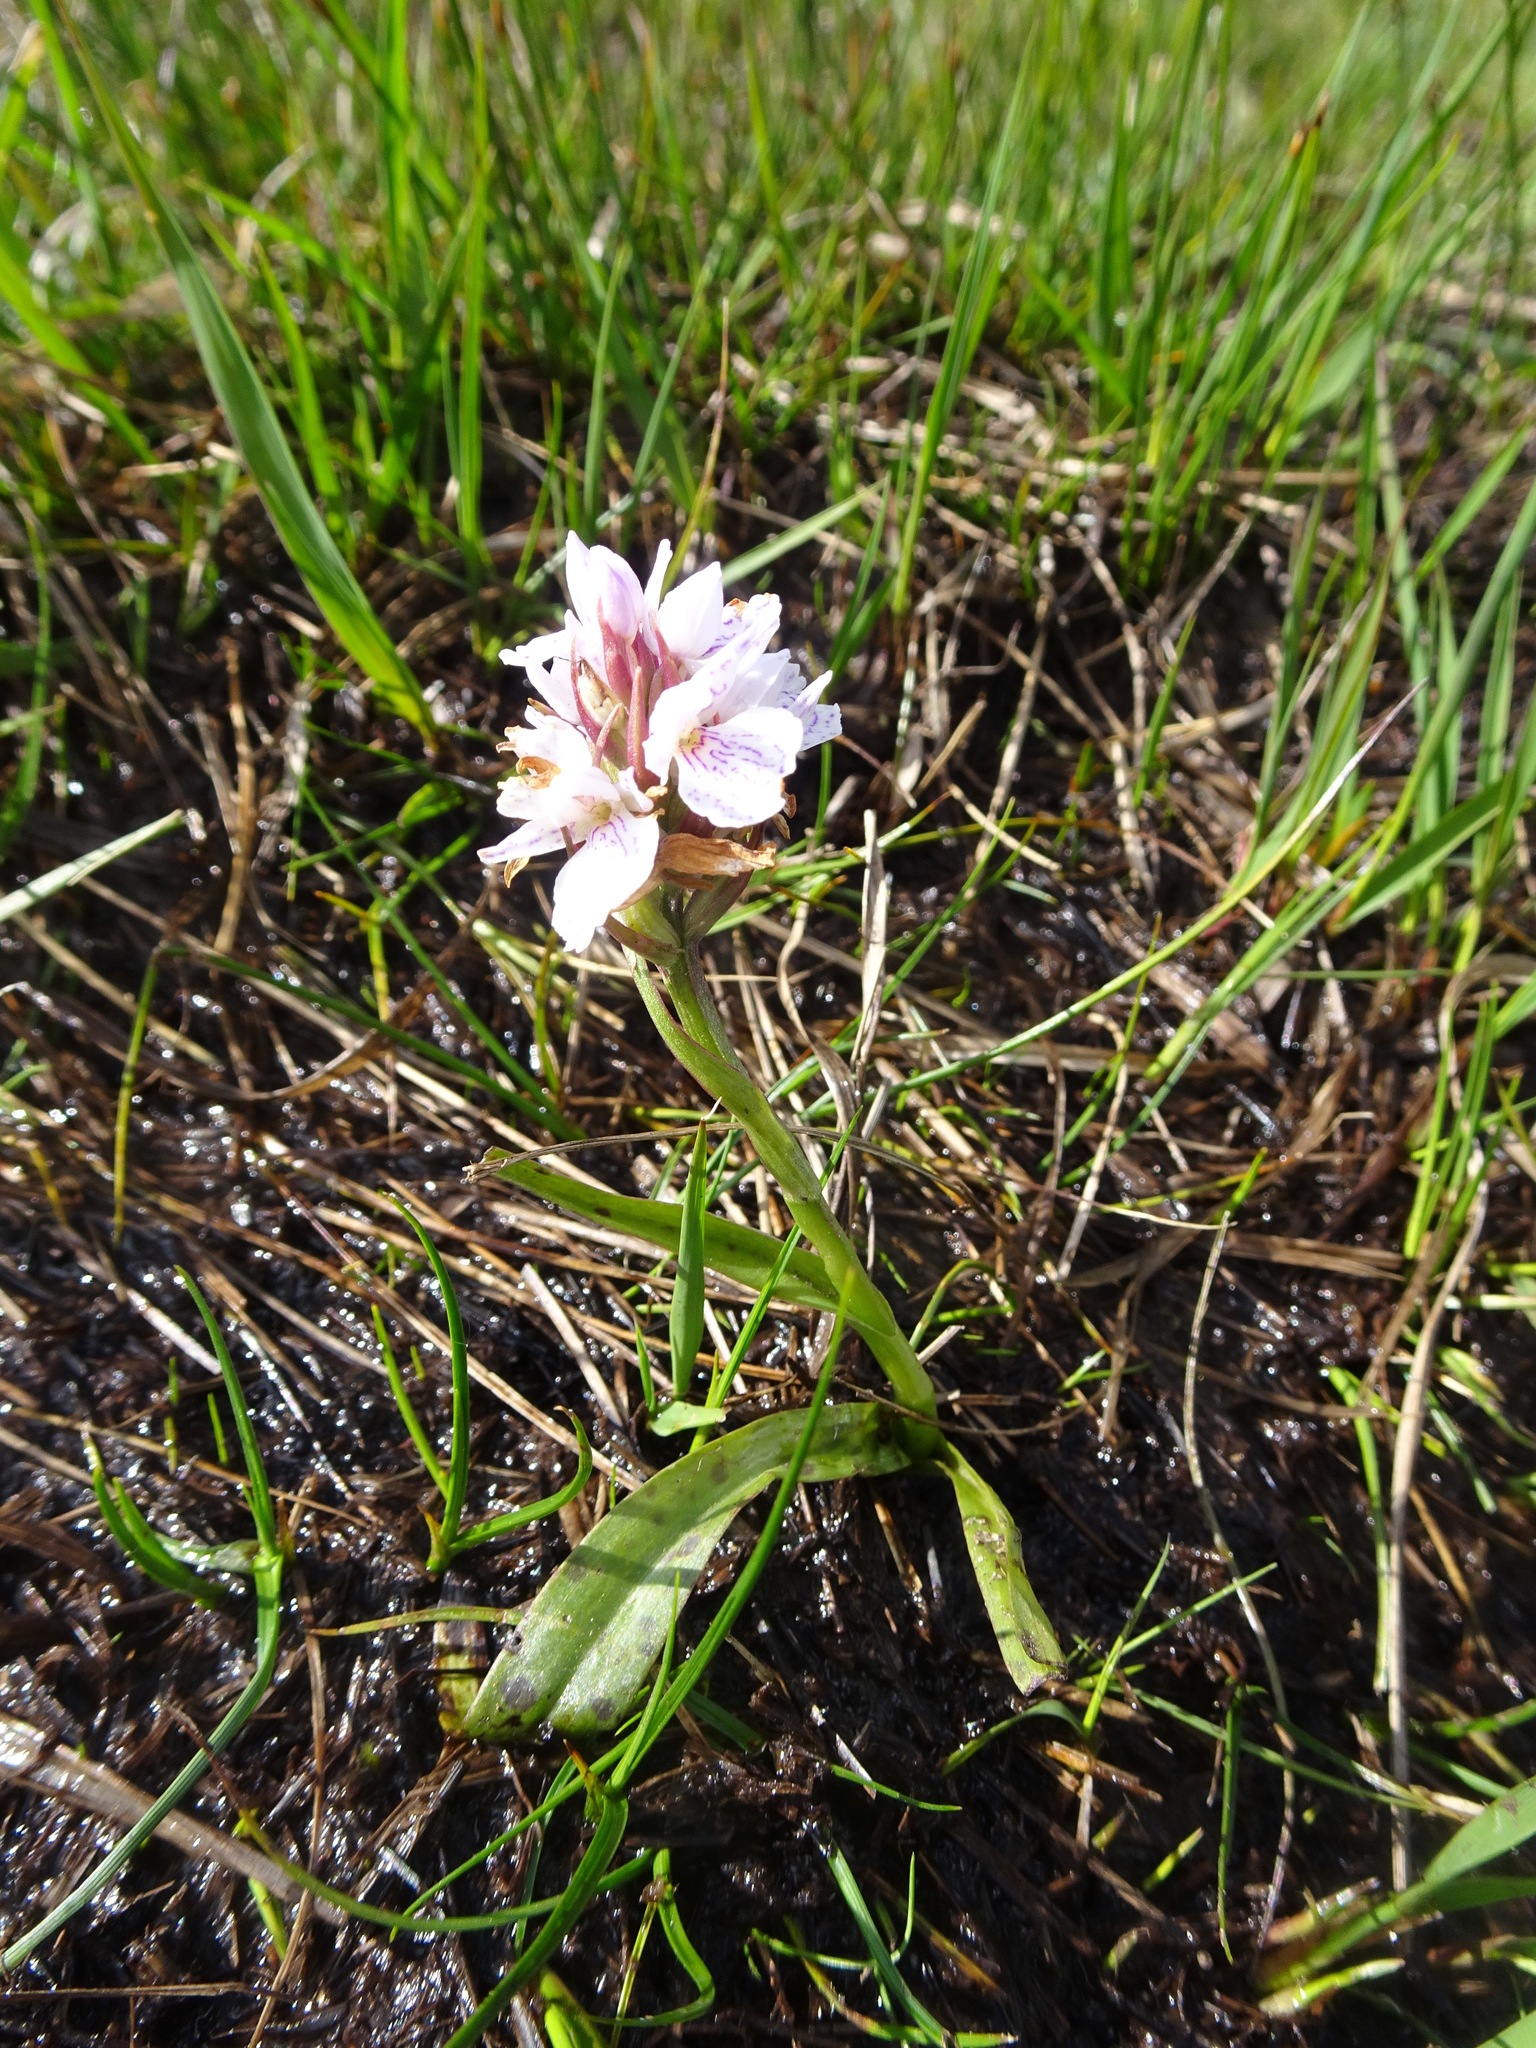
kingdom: Plantae
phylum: Tracheophyta
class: Liliopsida
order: Asparagales
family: Orchidaceae
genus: Dactylorhiza
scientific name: Dactylorhiza maculata
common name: Heath spotted-orchid
